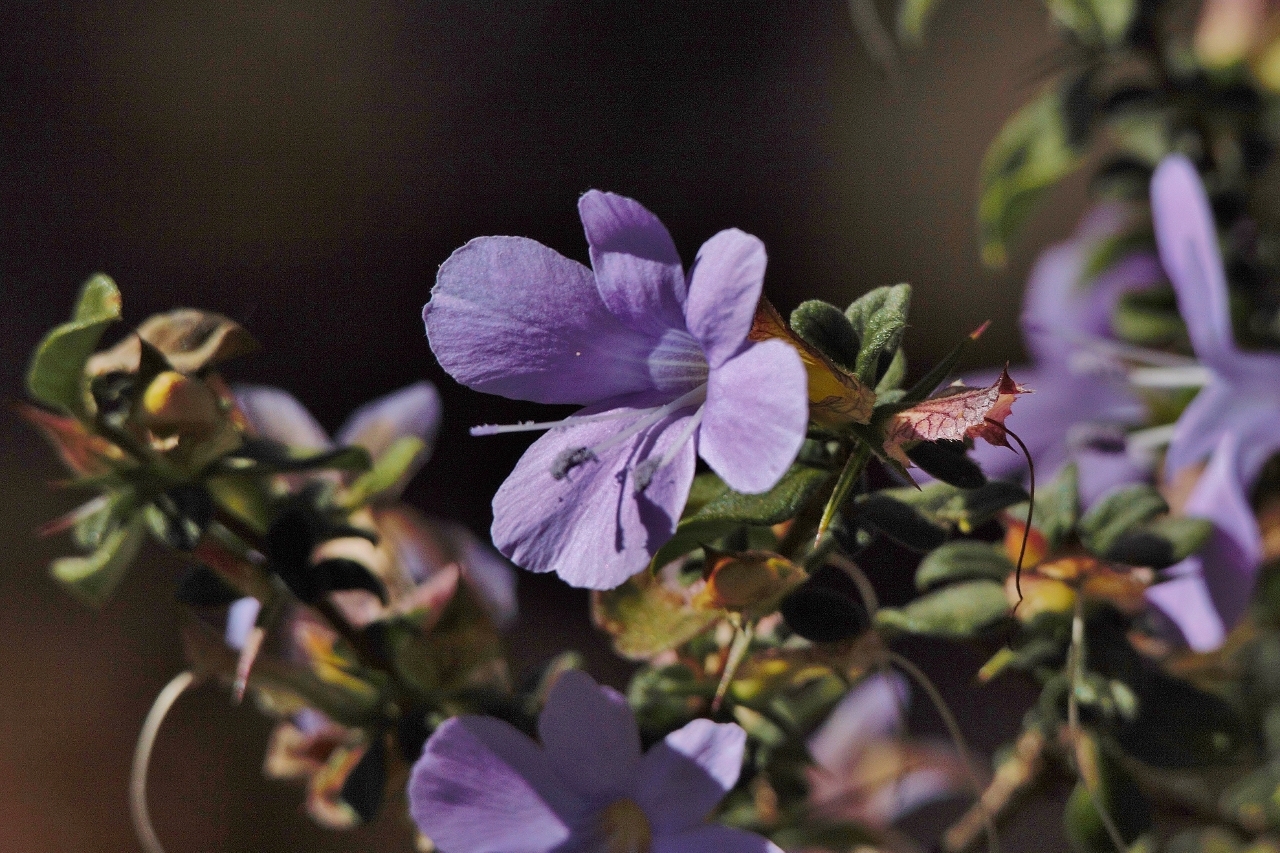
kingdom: Plantae
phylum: Tracheophyta
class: Magnoliopsida
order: Lamiales
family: Acanthaceae
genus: Barleria
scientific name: Barleria crassa
